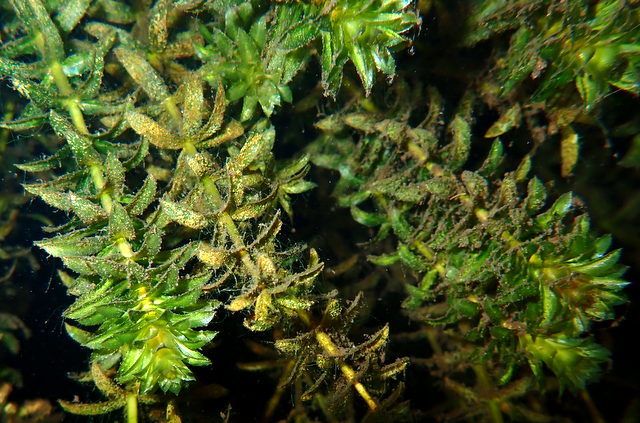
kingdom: Plantae
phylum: Tracheophyta
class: Liliopsida
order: Alismatales
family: Hydrocharitaceae
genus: Hydrilla
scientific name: Hydrilla verticillata
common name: Florida-elodea
